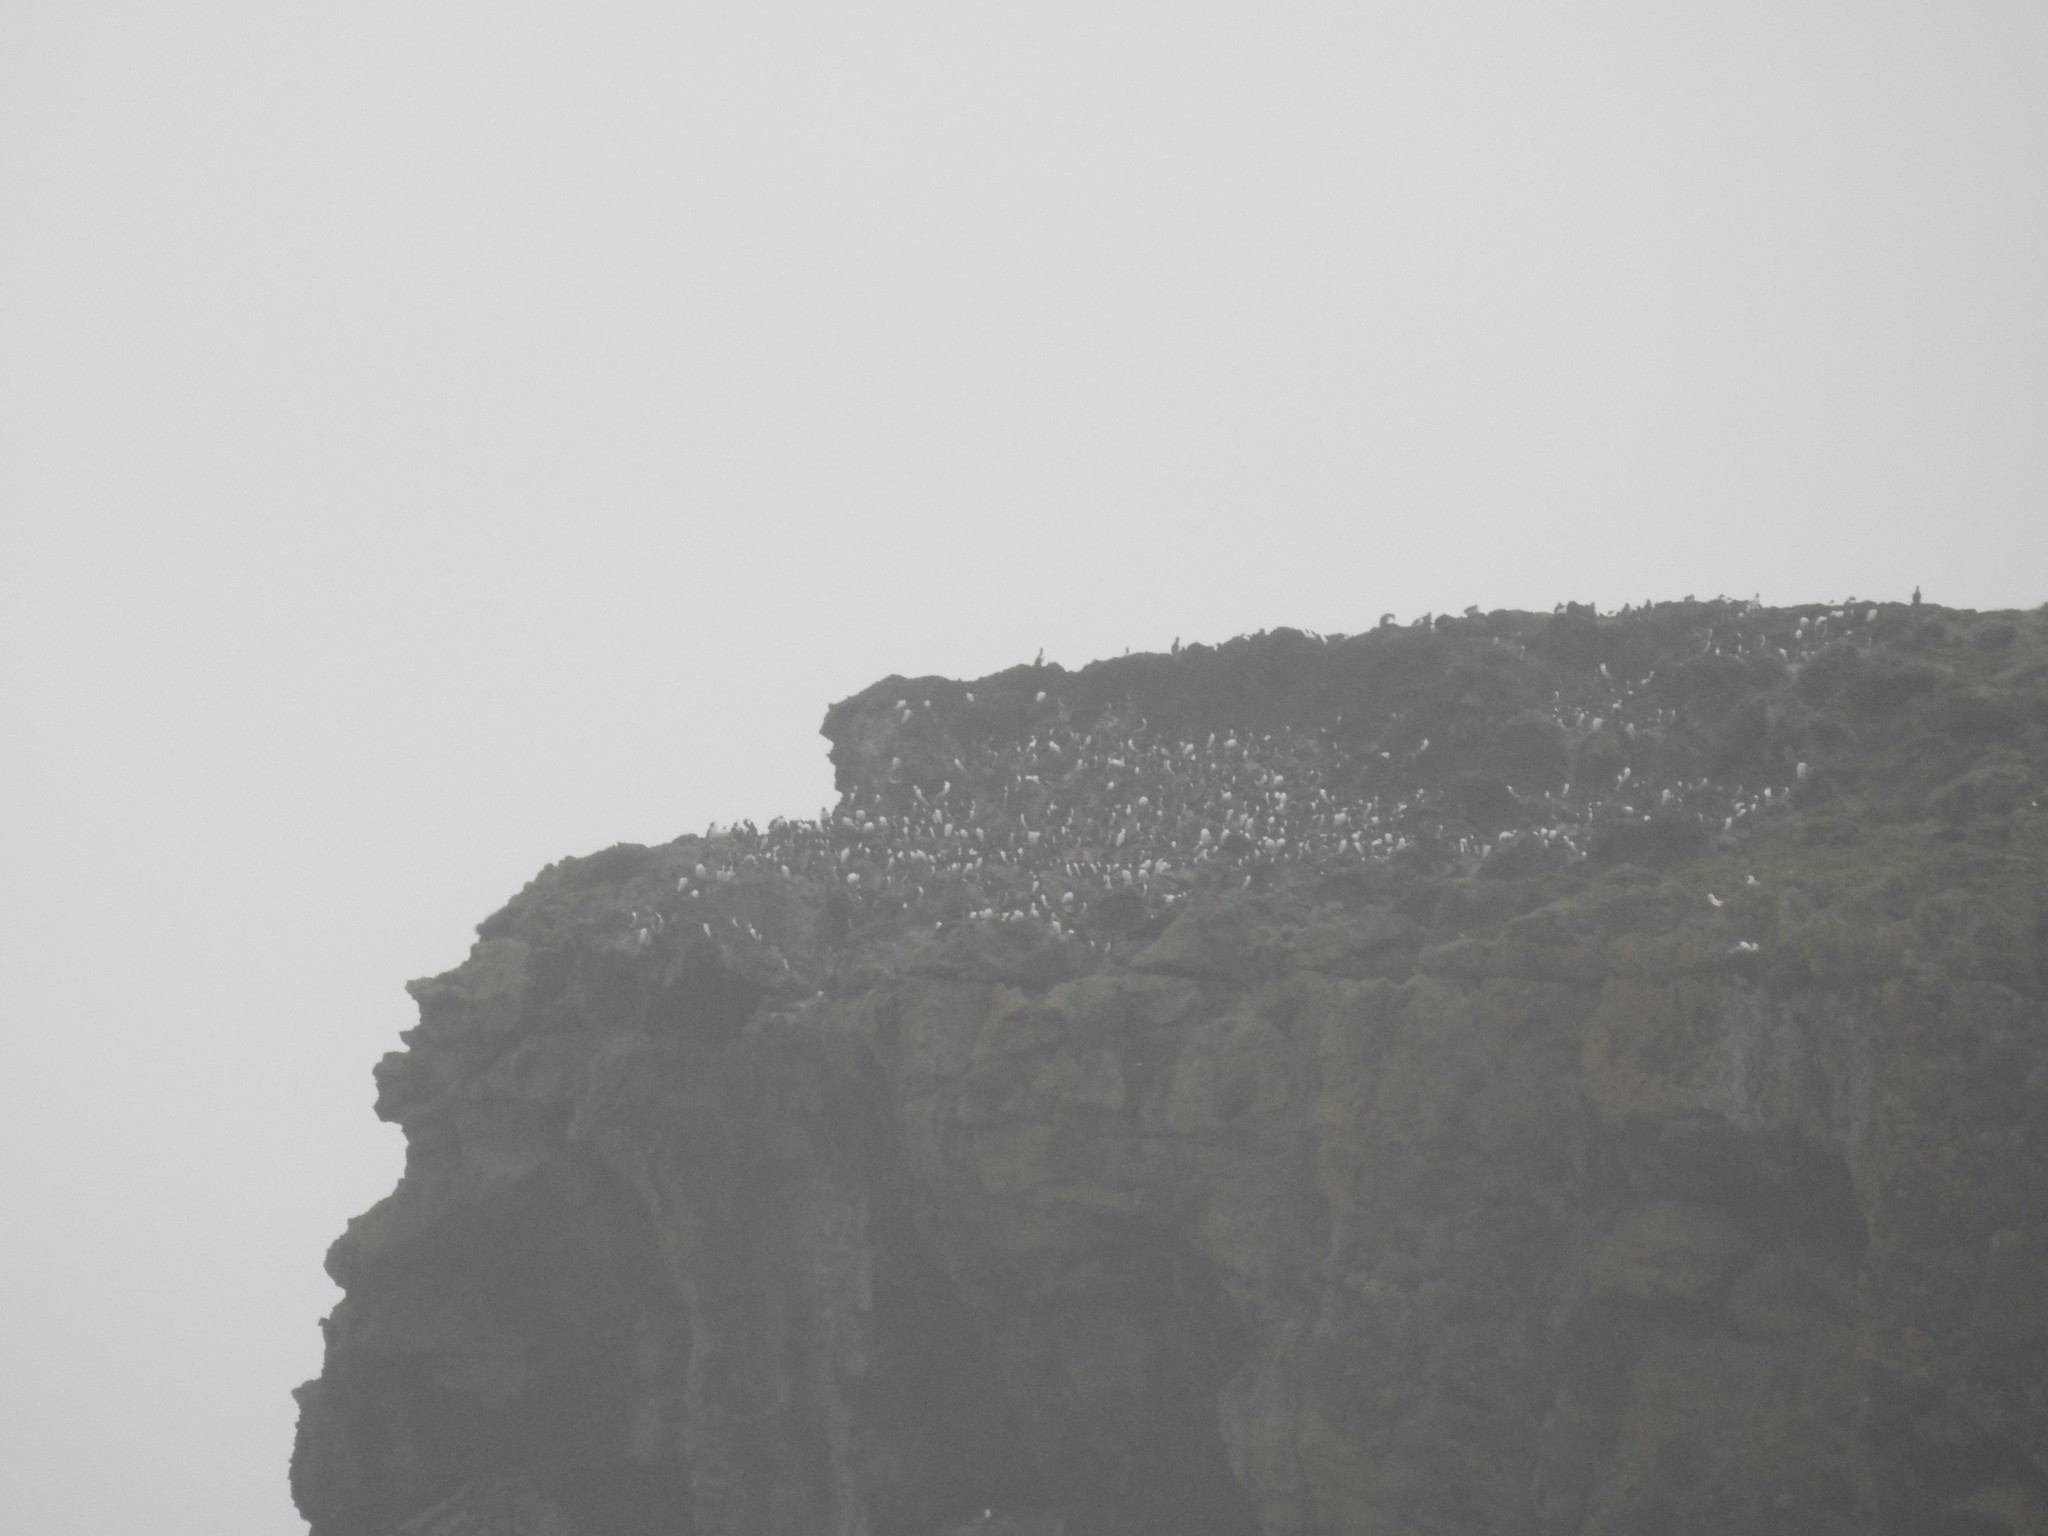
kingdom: Animalia
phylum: Chordata
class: Aves
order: Charadriiformes
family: Alcidae
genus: Uria
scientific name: Uria aalge
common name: Common murre
